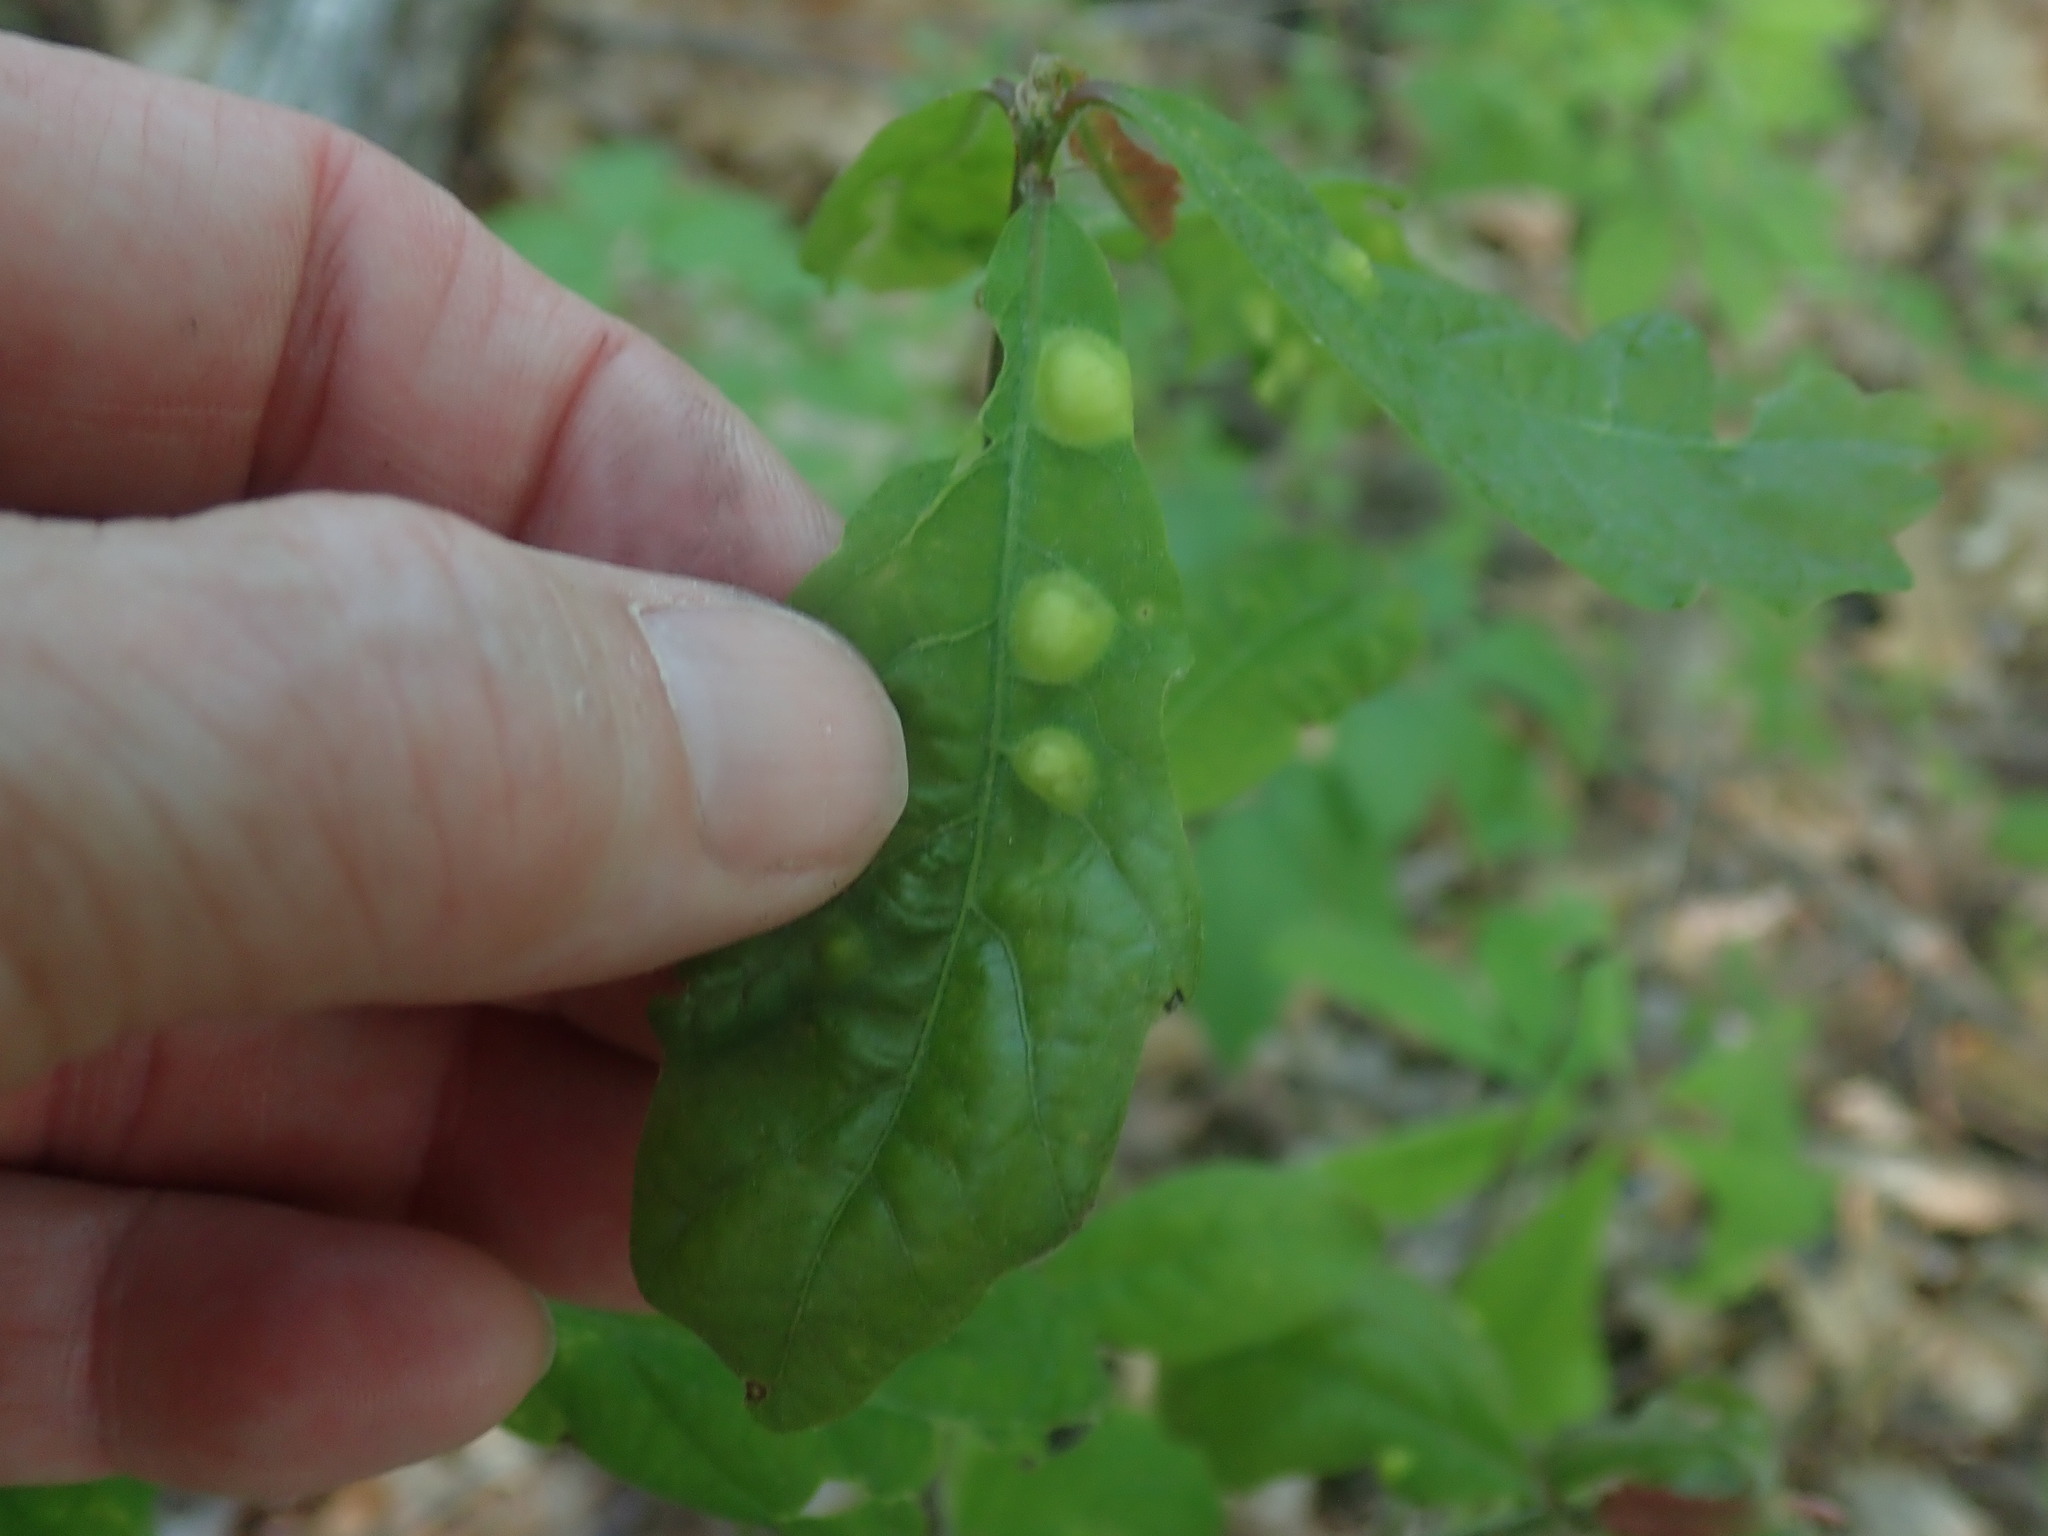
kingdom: Animalia
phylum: Arthropoda
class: Insecta
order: Hymenoptera
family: Cynipidae
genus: Callirhytis
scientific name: Callirhytis
